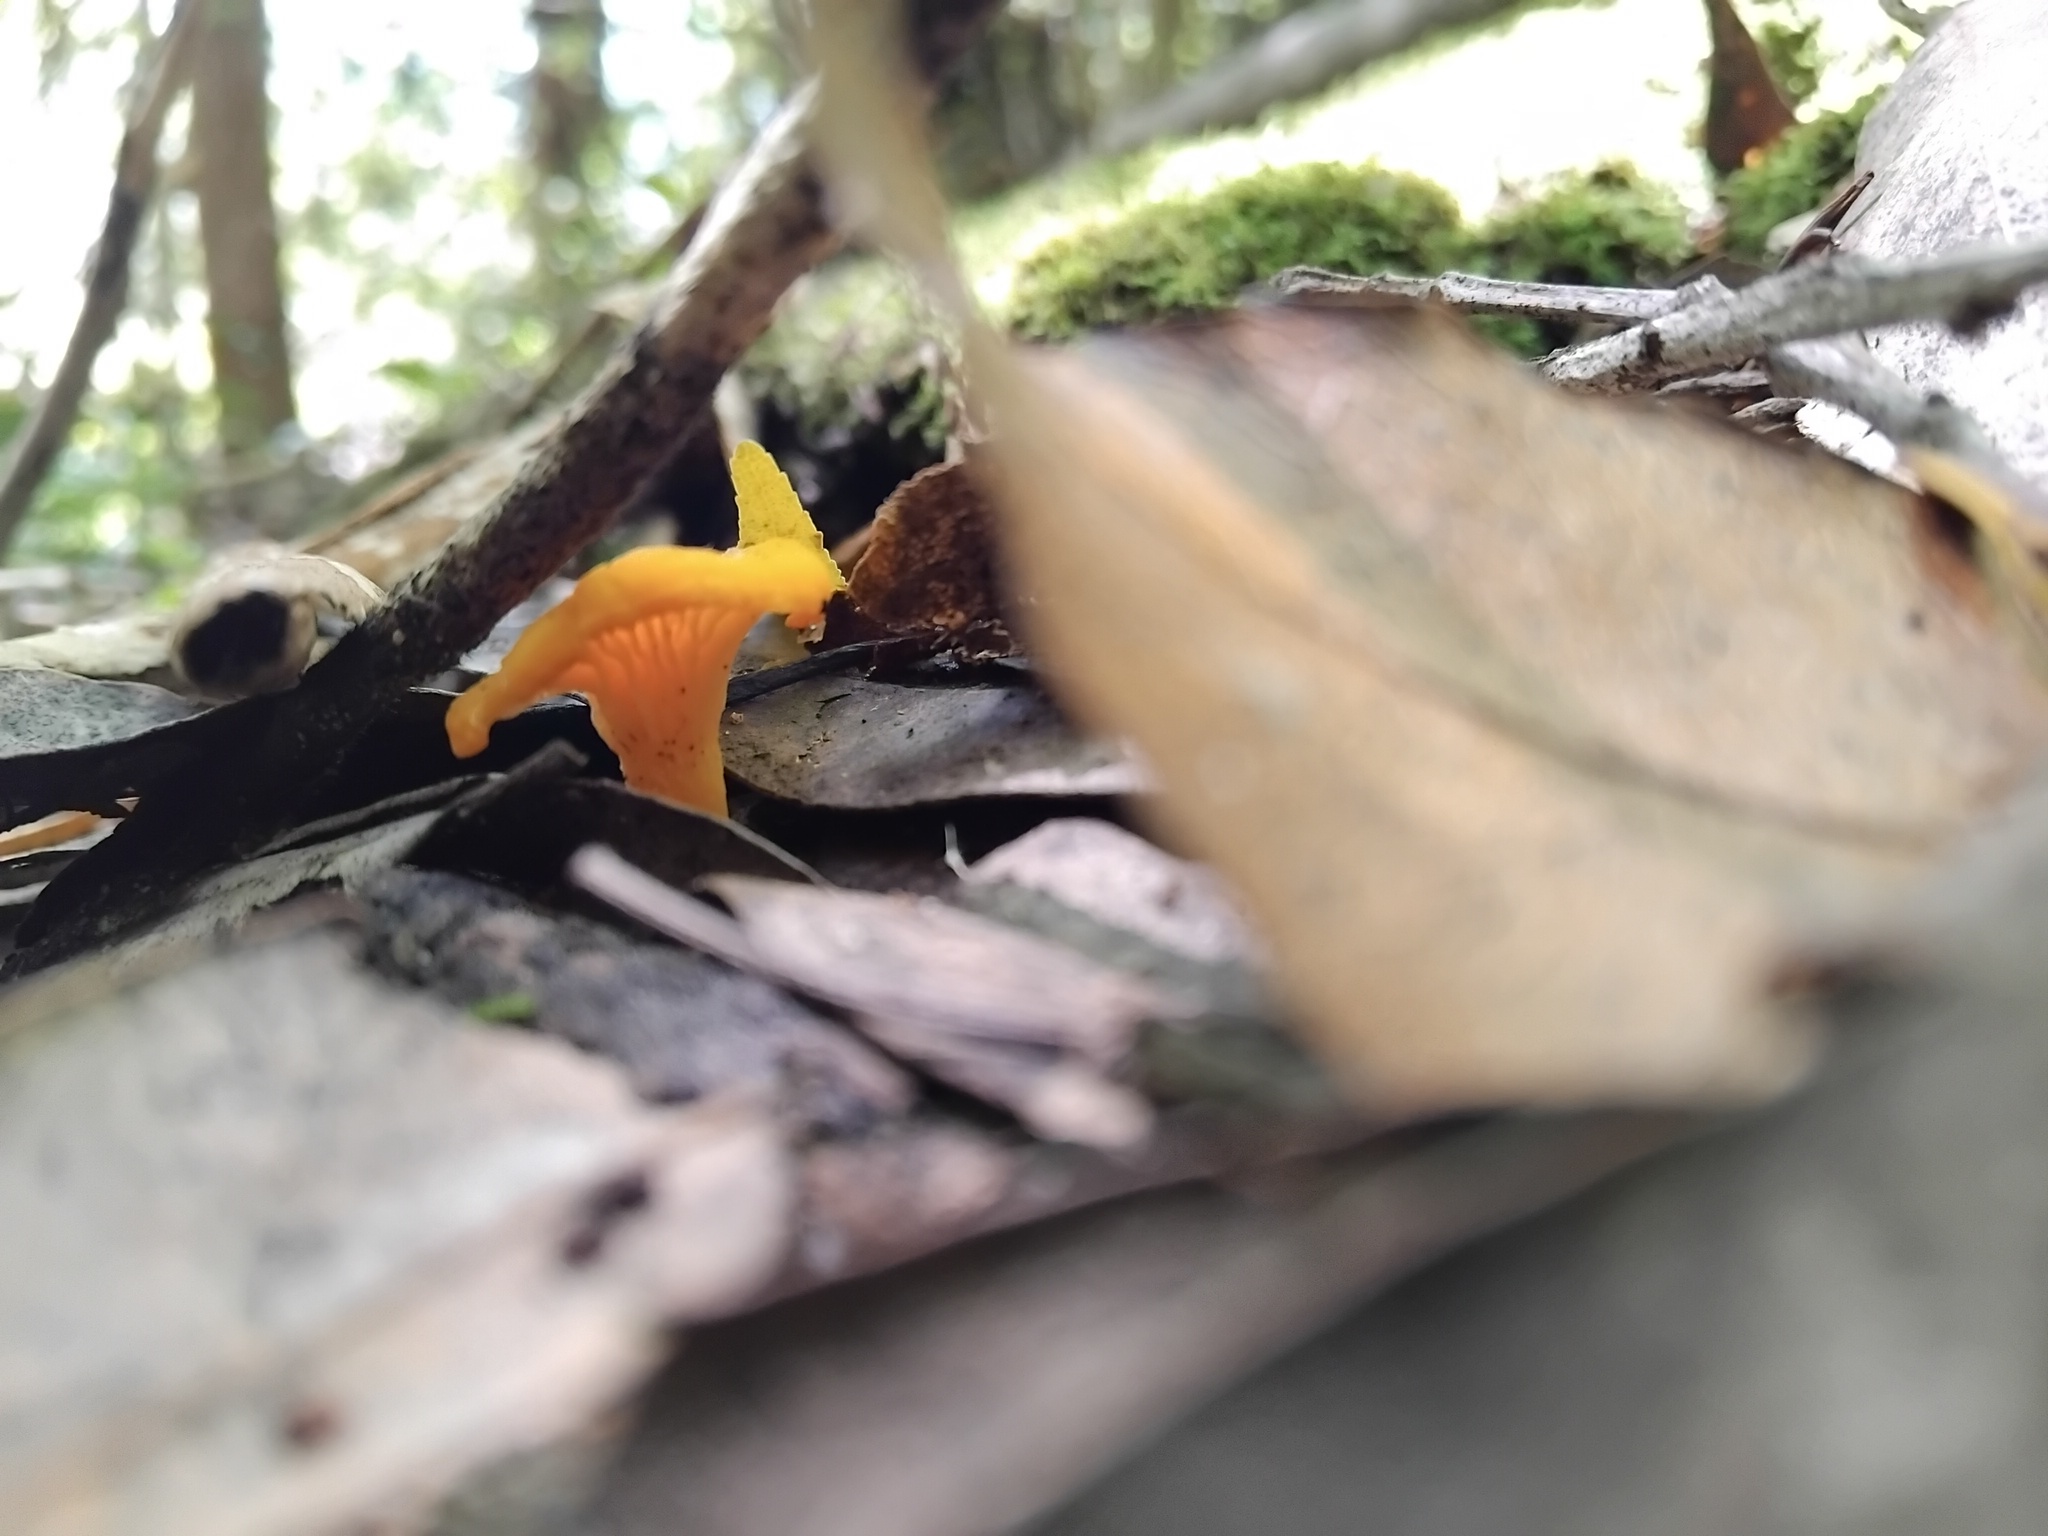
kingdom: Fungi
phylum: Basidiomycota
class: Agaricomycetes
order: Cantharellales
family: Hydnaceae
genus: Cantharellus
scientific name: Cantharellus
